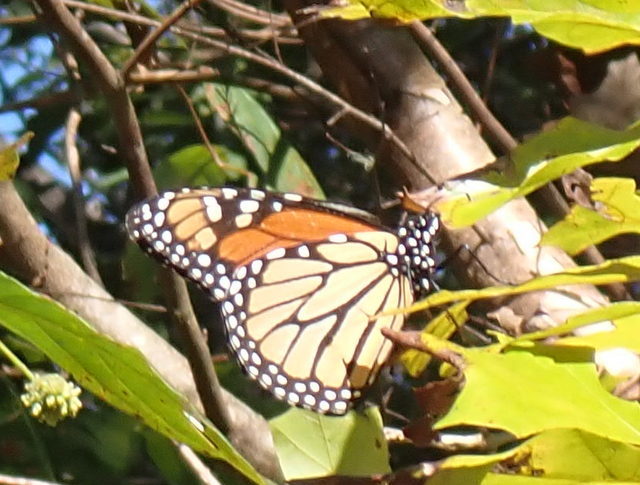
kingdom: Animalia
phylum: Arthropoda
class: Insecta
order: Lepidoptera
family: Nymphalidae
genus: Danaus
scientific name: Danaus plexippus
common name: Monarch
